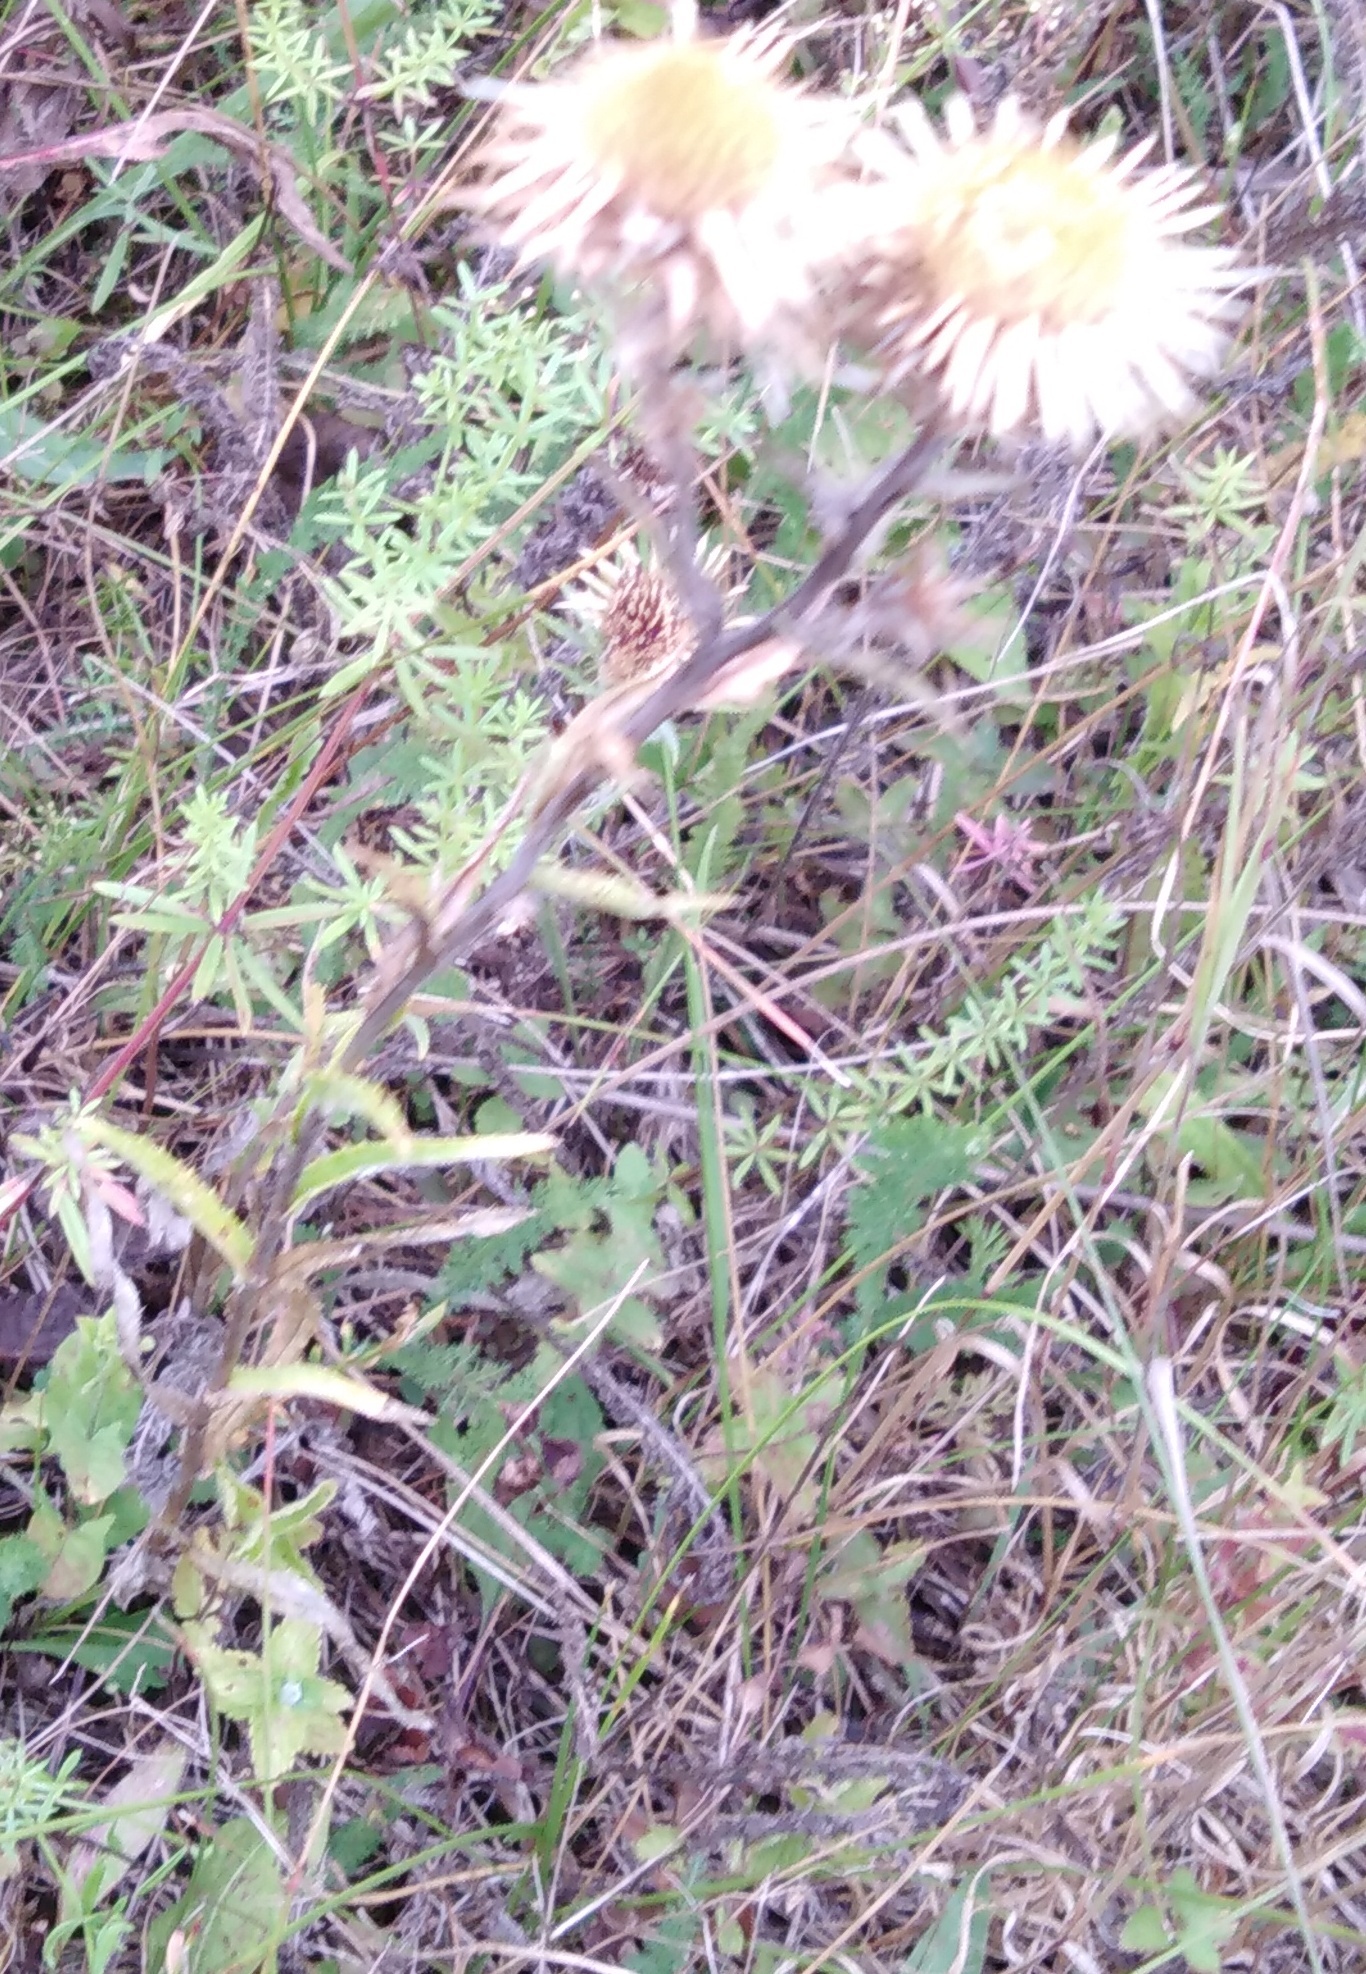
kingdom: Plantae
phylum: Tracheophyta
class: Magnoliopsida
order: Asterales
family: Asteraceae
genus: Carlina
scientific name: Carlina biebersteinii
